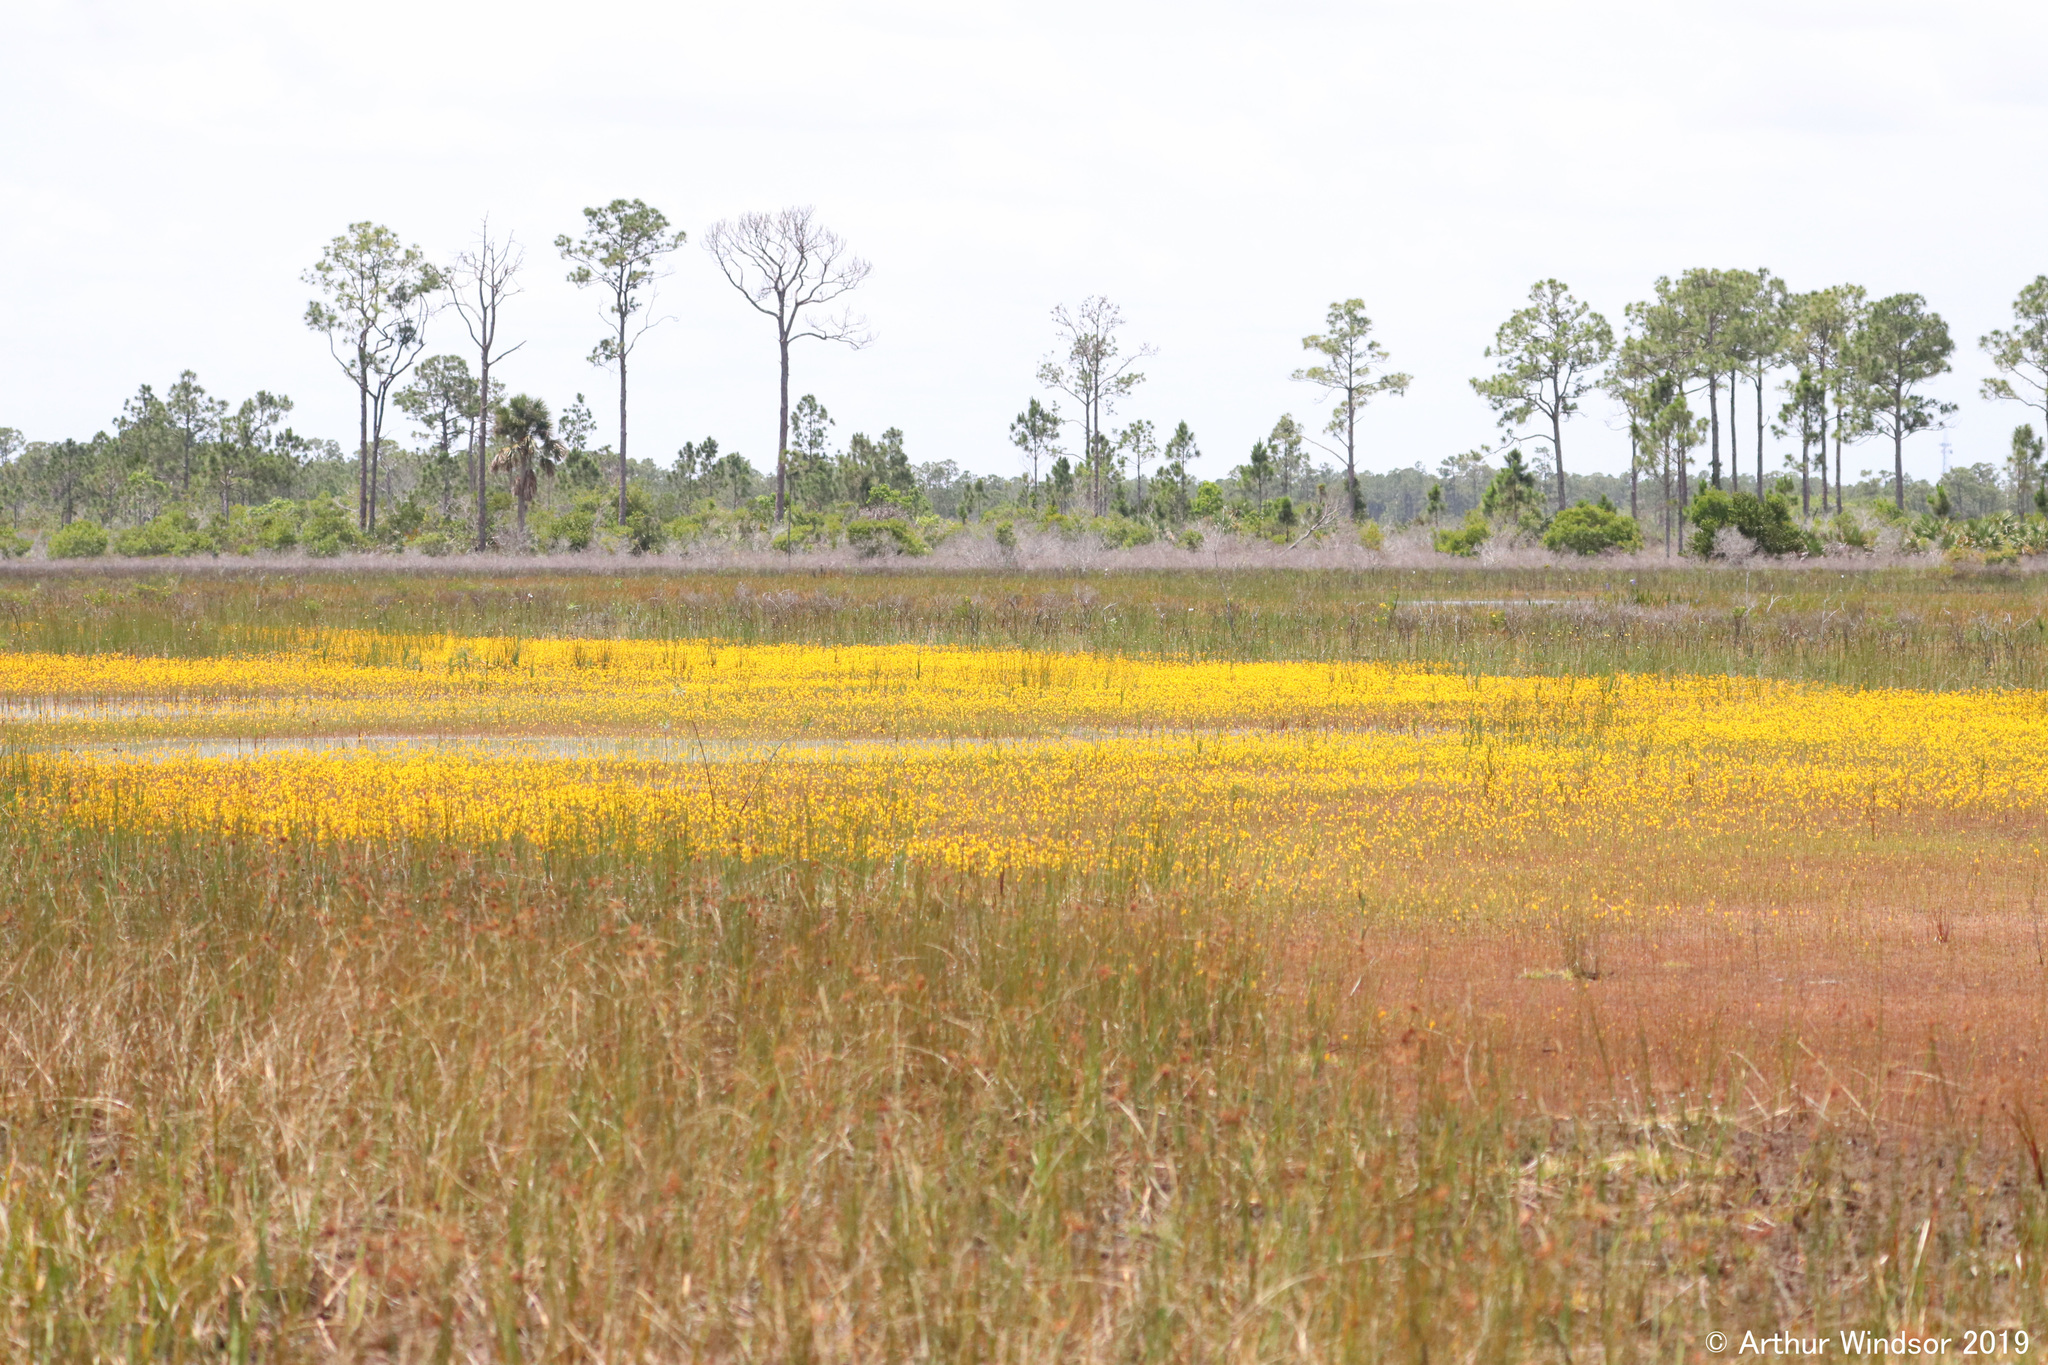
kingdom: Plantae
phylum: Tracheophyta
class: Magnoliopsida
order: Lamiales
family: Lentibulariaceae
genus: Utricularia
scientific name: Utricularia cornuta
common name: Horned bladderwort
